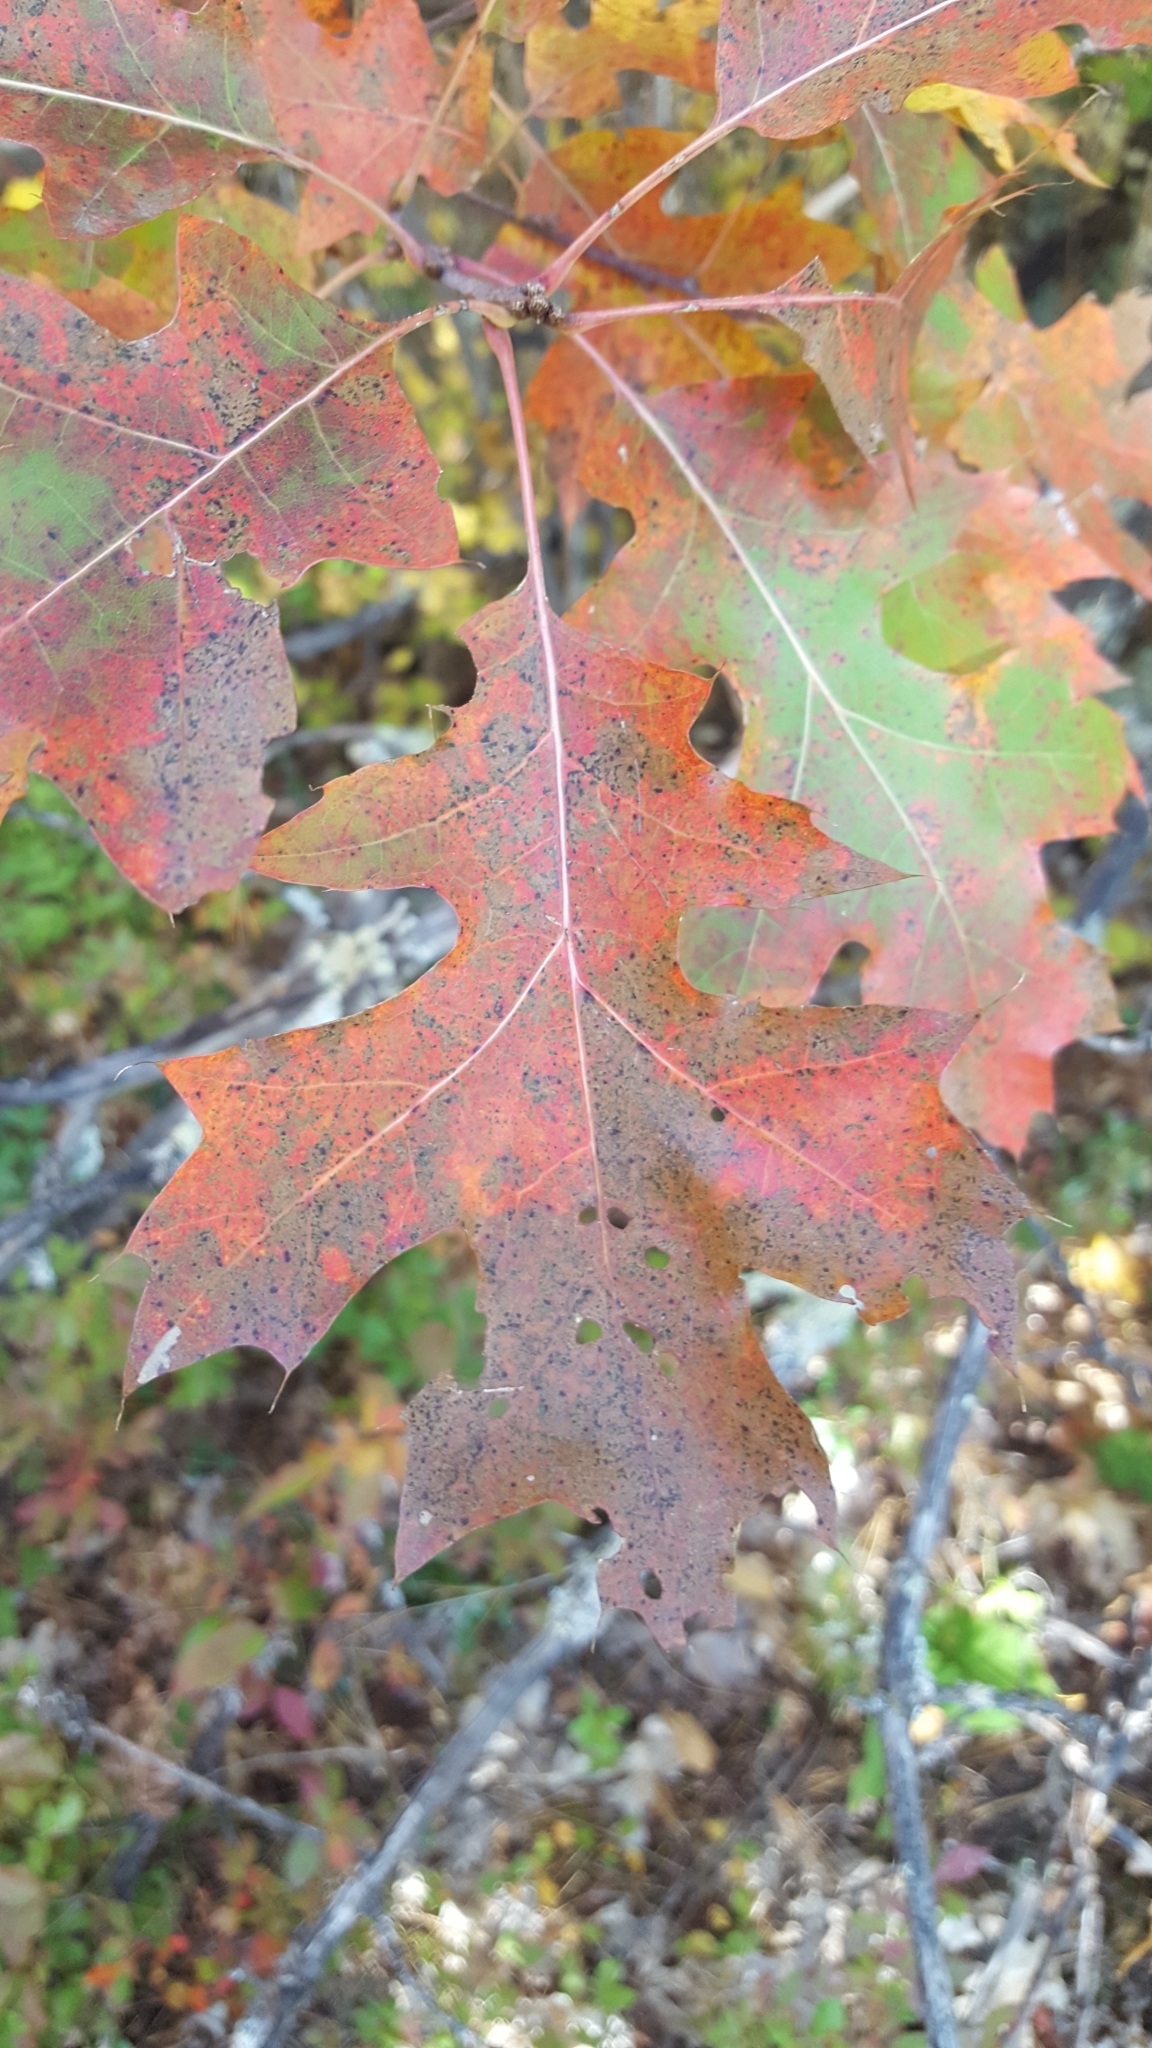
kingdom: Plantae
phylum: Tracheophyta
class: Magnoliopsida
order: Fagales
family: Fagaceae
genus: Quercus
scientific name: Quercus rubra
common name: Red oak
